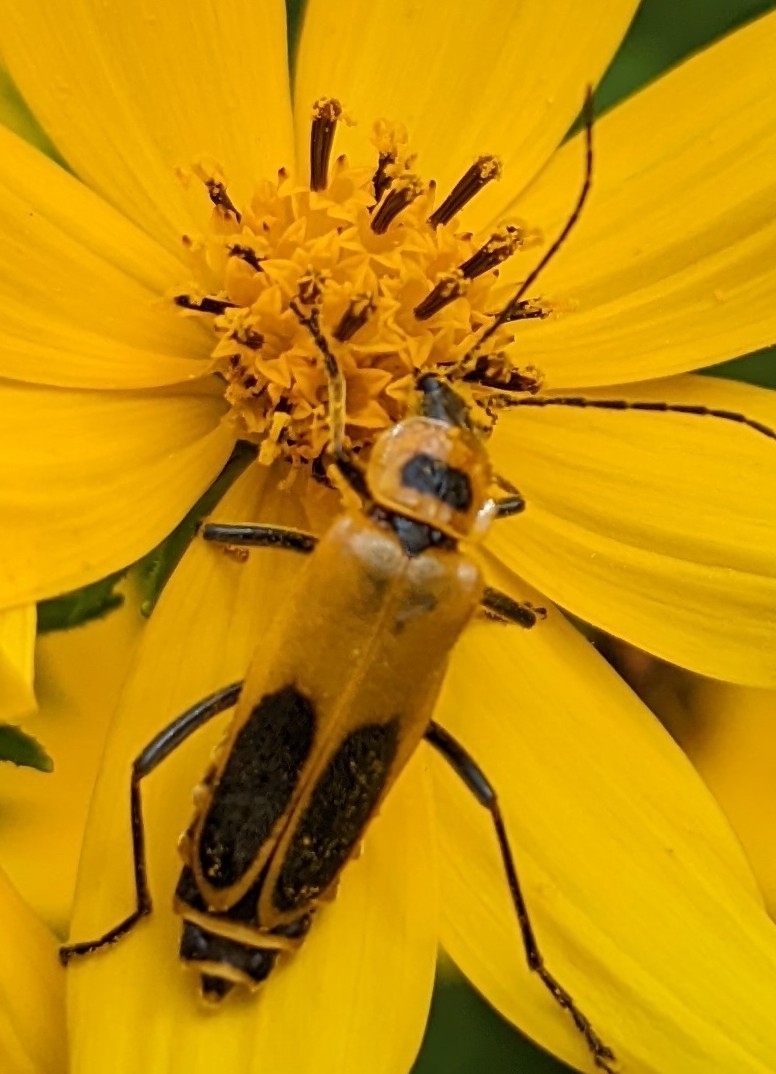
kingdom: Animalia
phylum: Arthropoda
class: Insecta
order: Coleoptera
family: Cantharidae
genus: Chauliognathus
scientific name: Chauliognathus pensylvanicus
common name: Goldenrod soldier beetle
